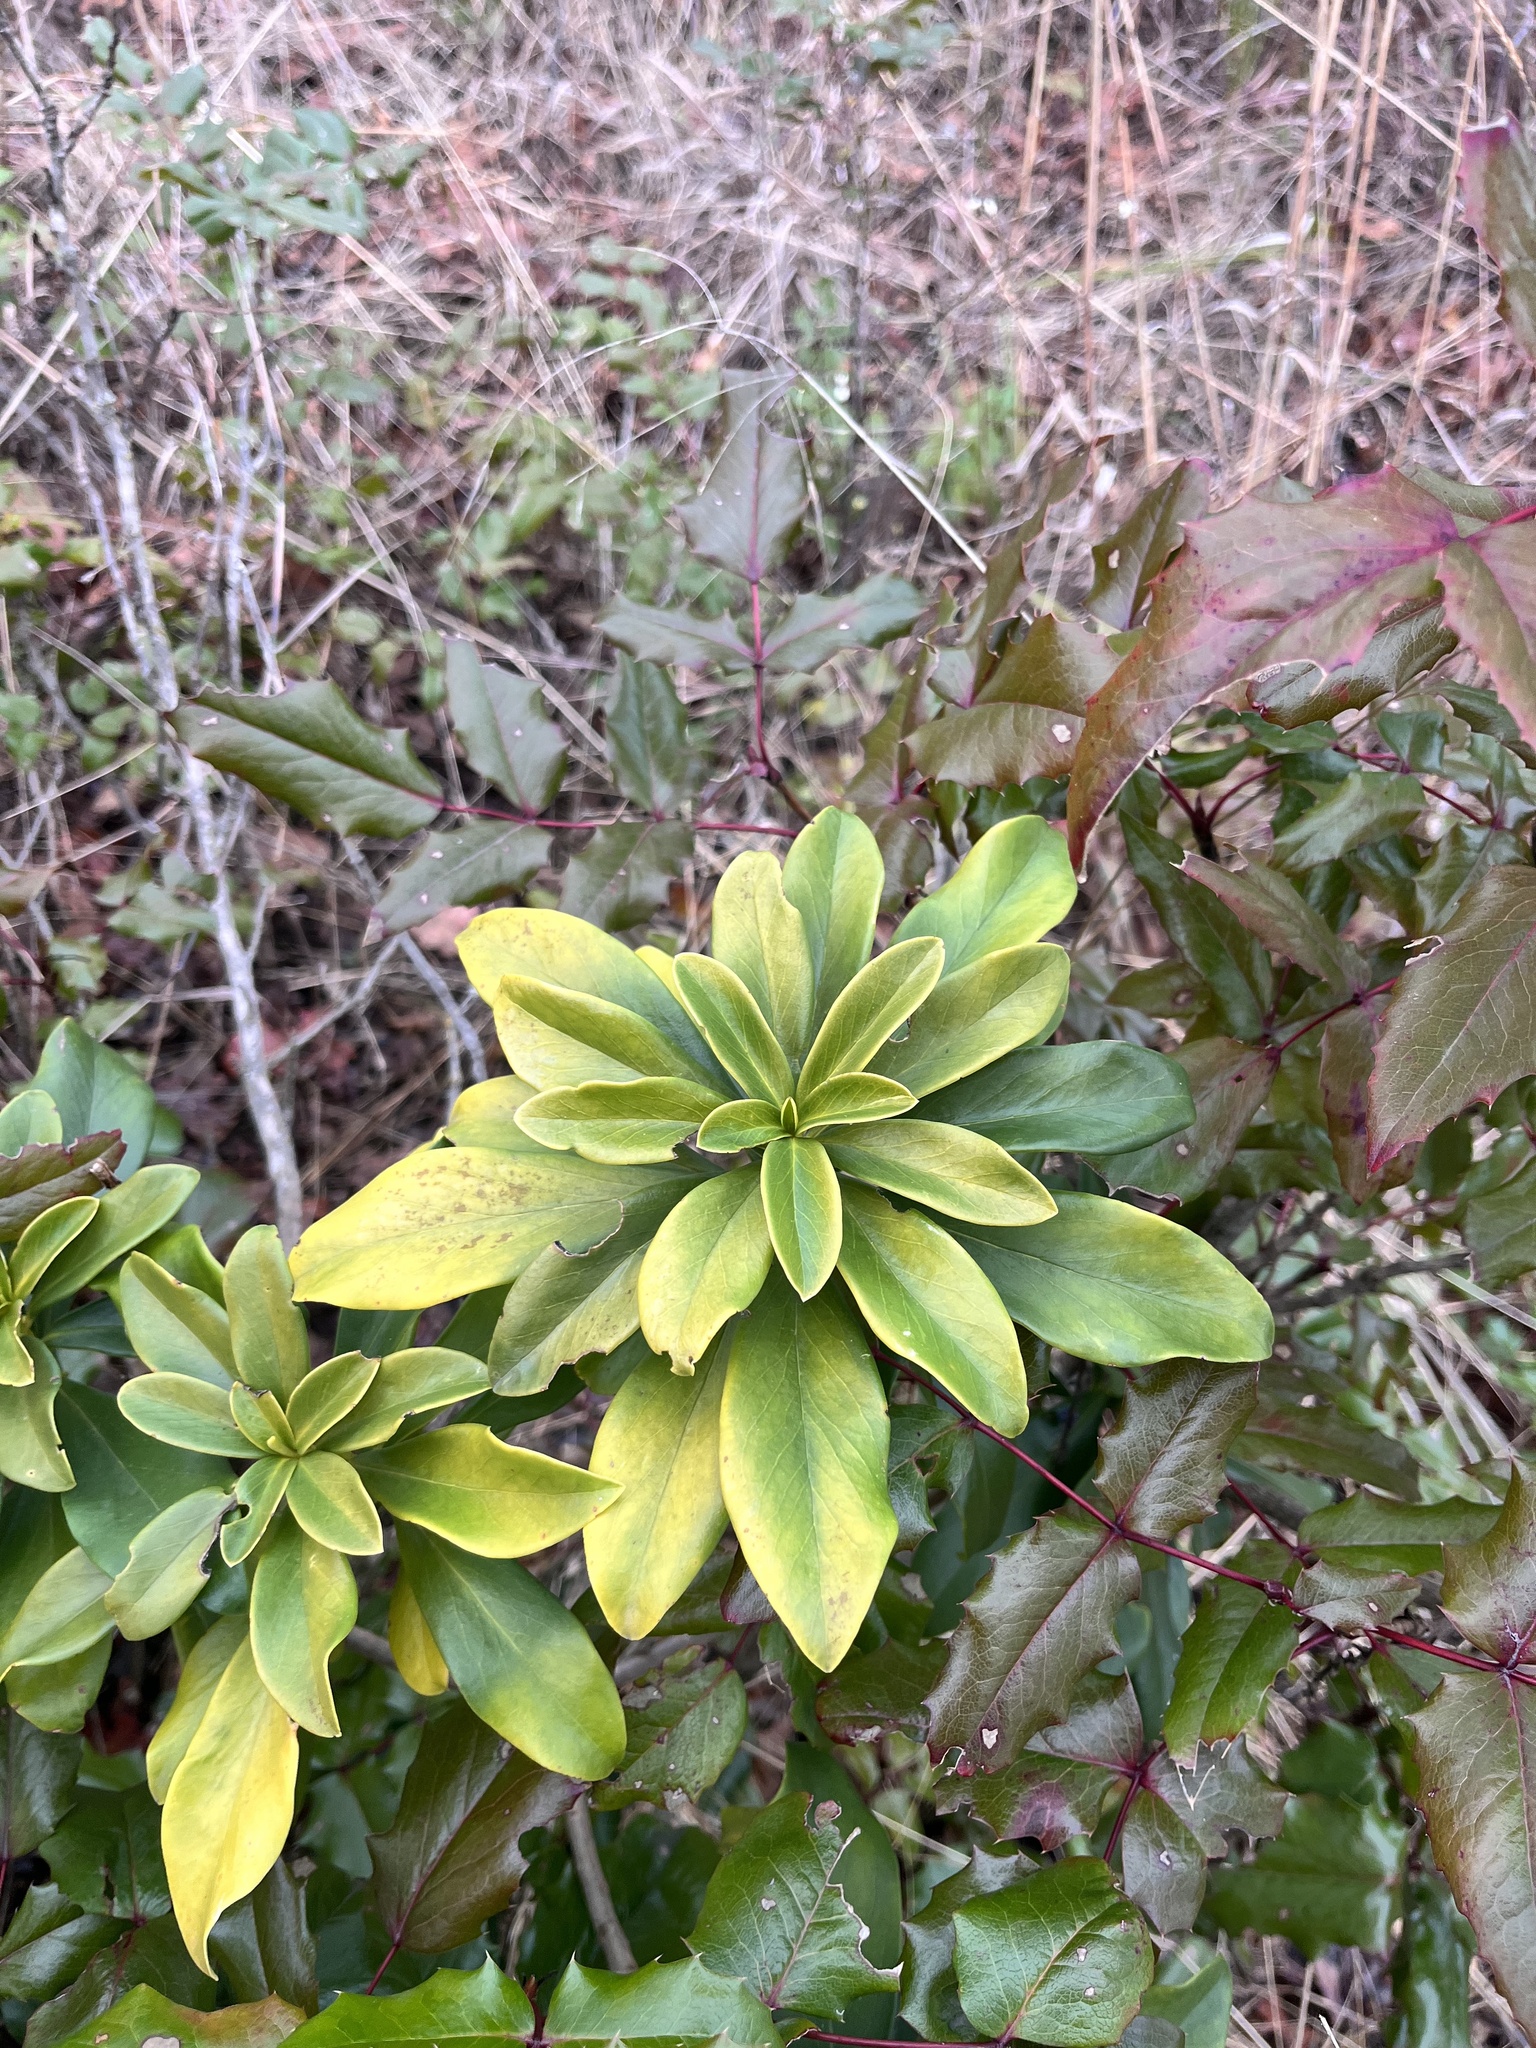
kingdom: Plantae
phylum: Tracheophyta
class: Magnoliopsida
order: Malvales
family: Thymelaeaceae
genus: Daphne
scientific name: Daphne laureola
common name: Spurge-laurel
